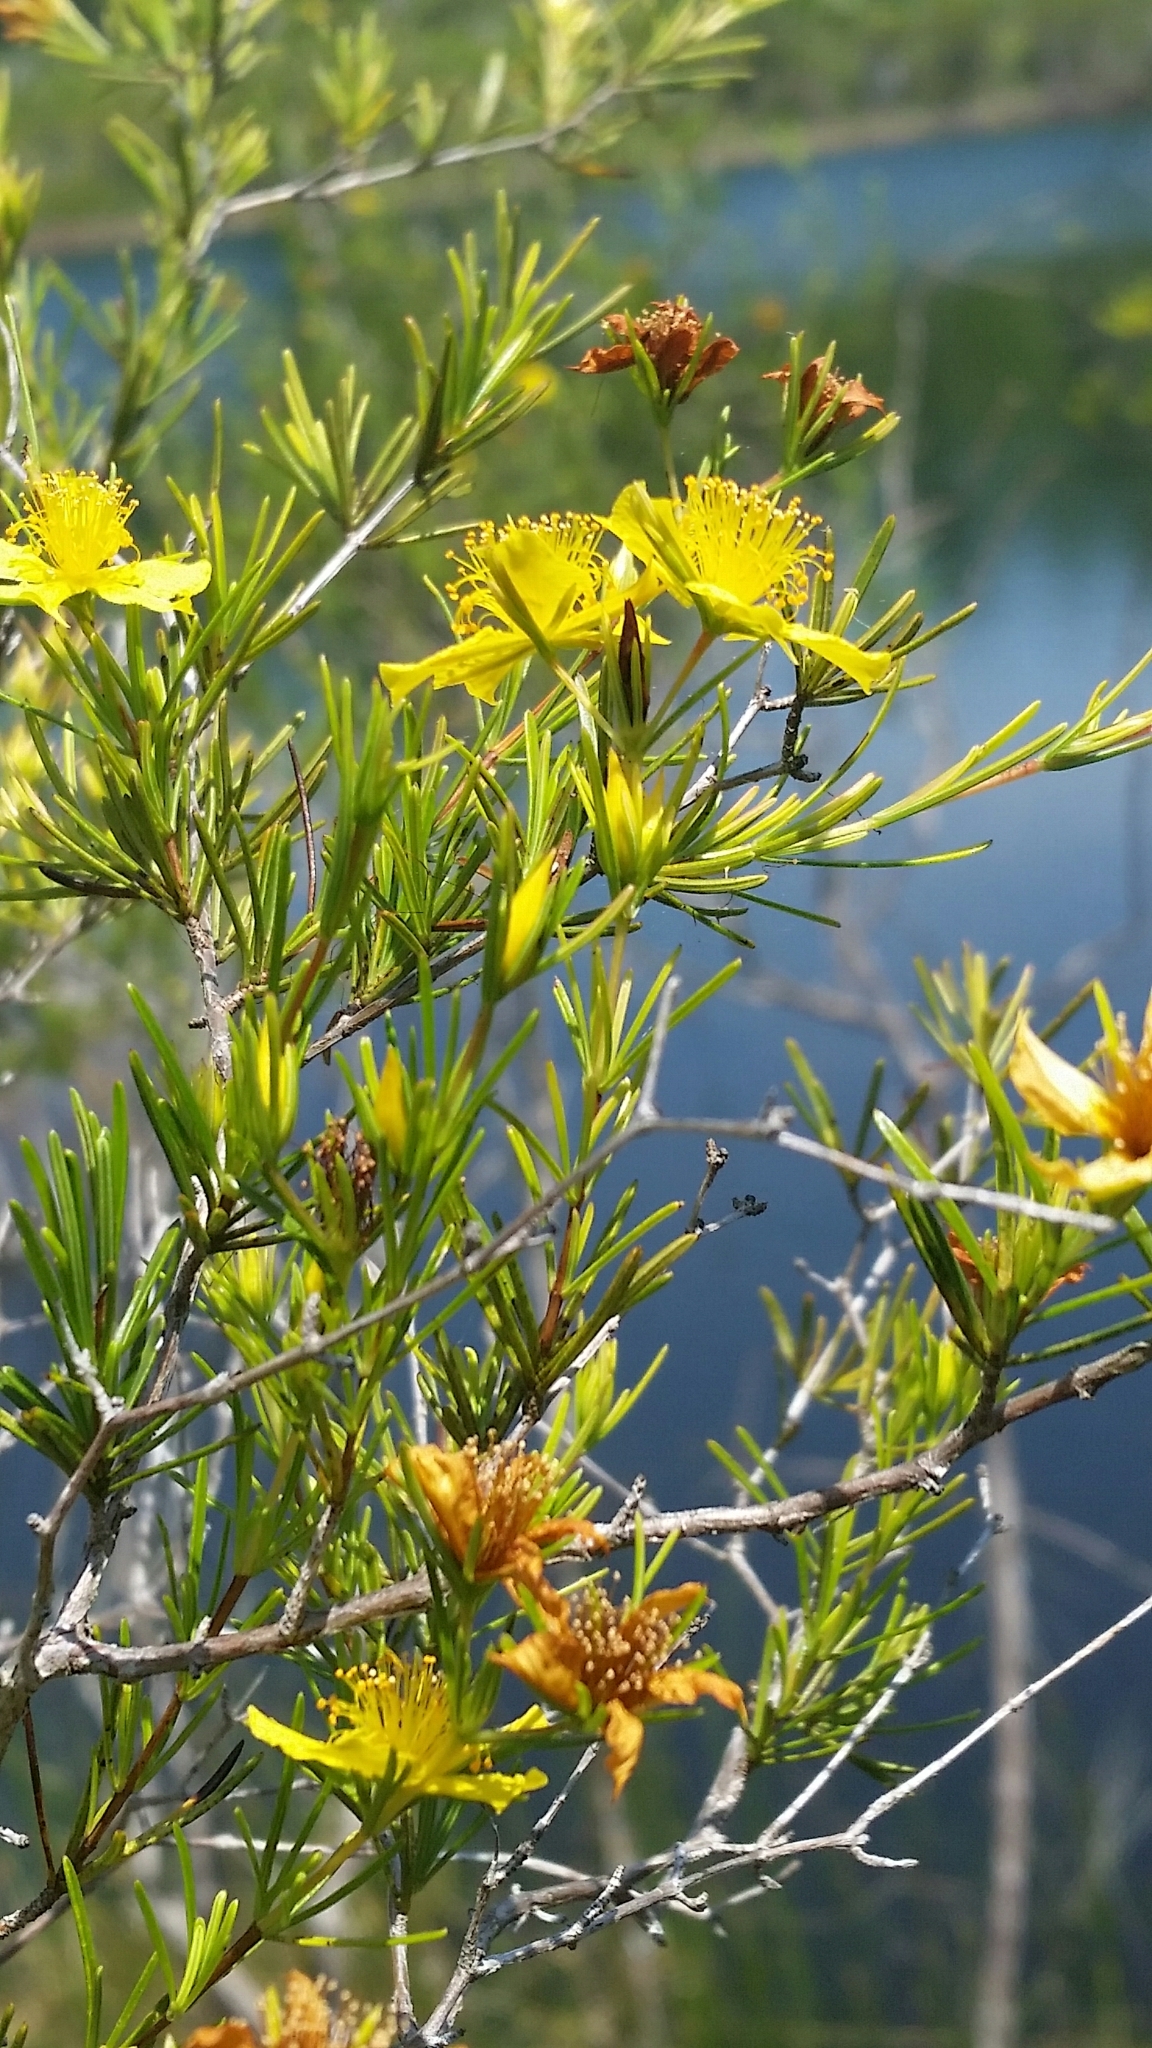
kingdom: Plantae
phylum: Tracheophyta
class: Magnoliopsida
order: Malpighiales
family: Hypericaceae
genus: Hypericum
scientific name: Hypericum fasciculatum
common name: Peelbark st. john's wort
